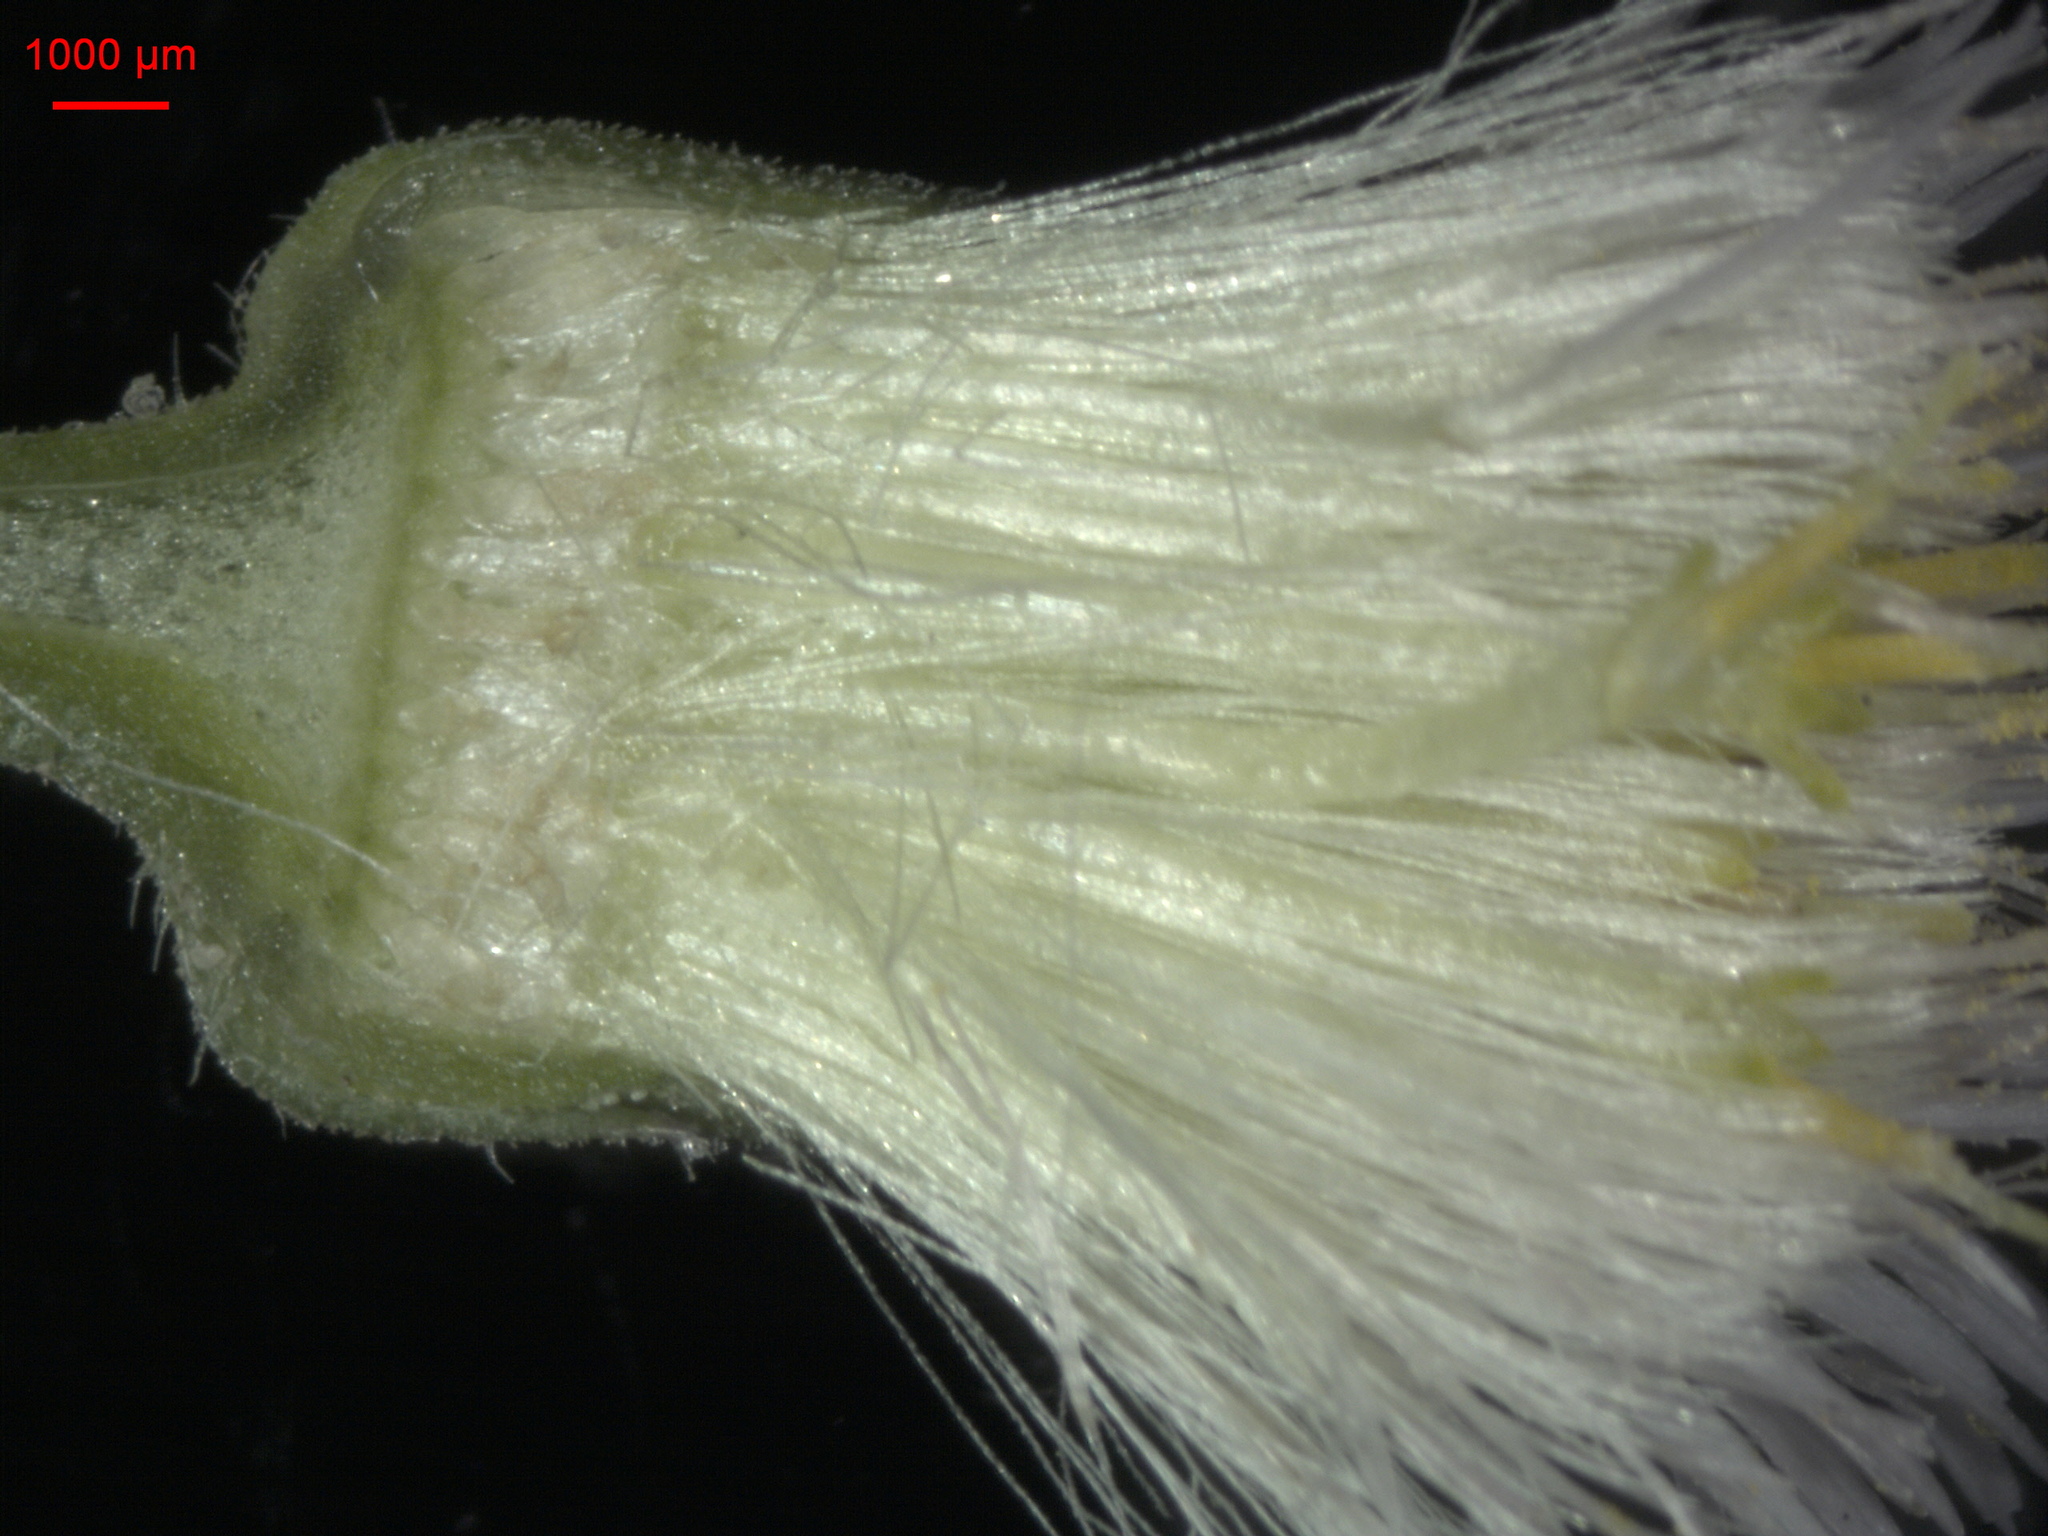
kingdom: Plantae
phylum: Tracheophyta
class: Magnoliopsida
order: Asterales
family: Asteraceae
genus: Erigeron
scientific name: Erigeron acris
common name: Blue fleabane
